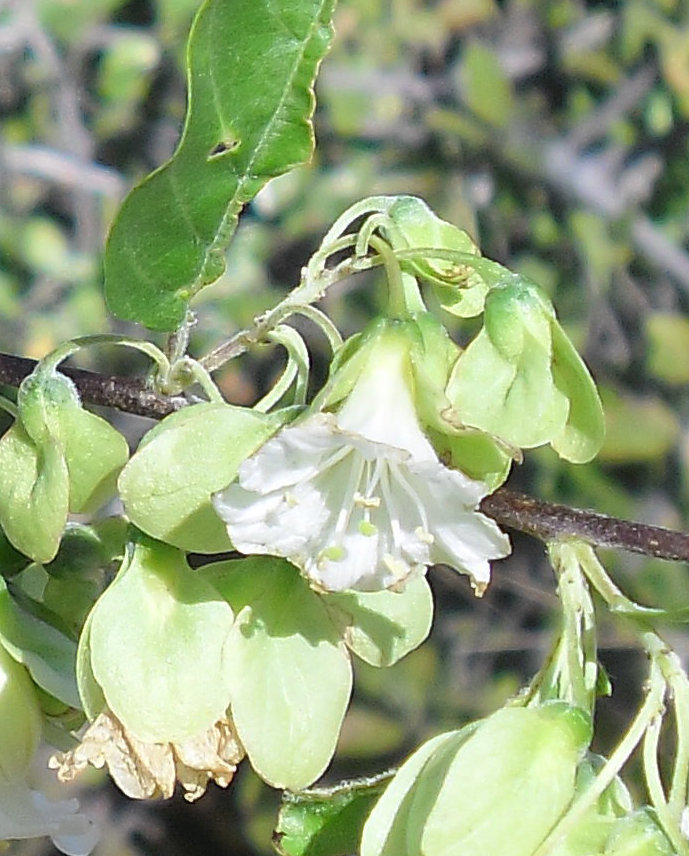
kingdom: Plantae
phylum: Tracheophyta
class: Magnoliopsida
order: Solanales
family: Convolvulaceae
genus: Calycobolus
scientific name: Calycobolus nutans
